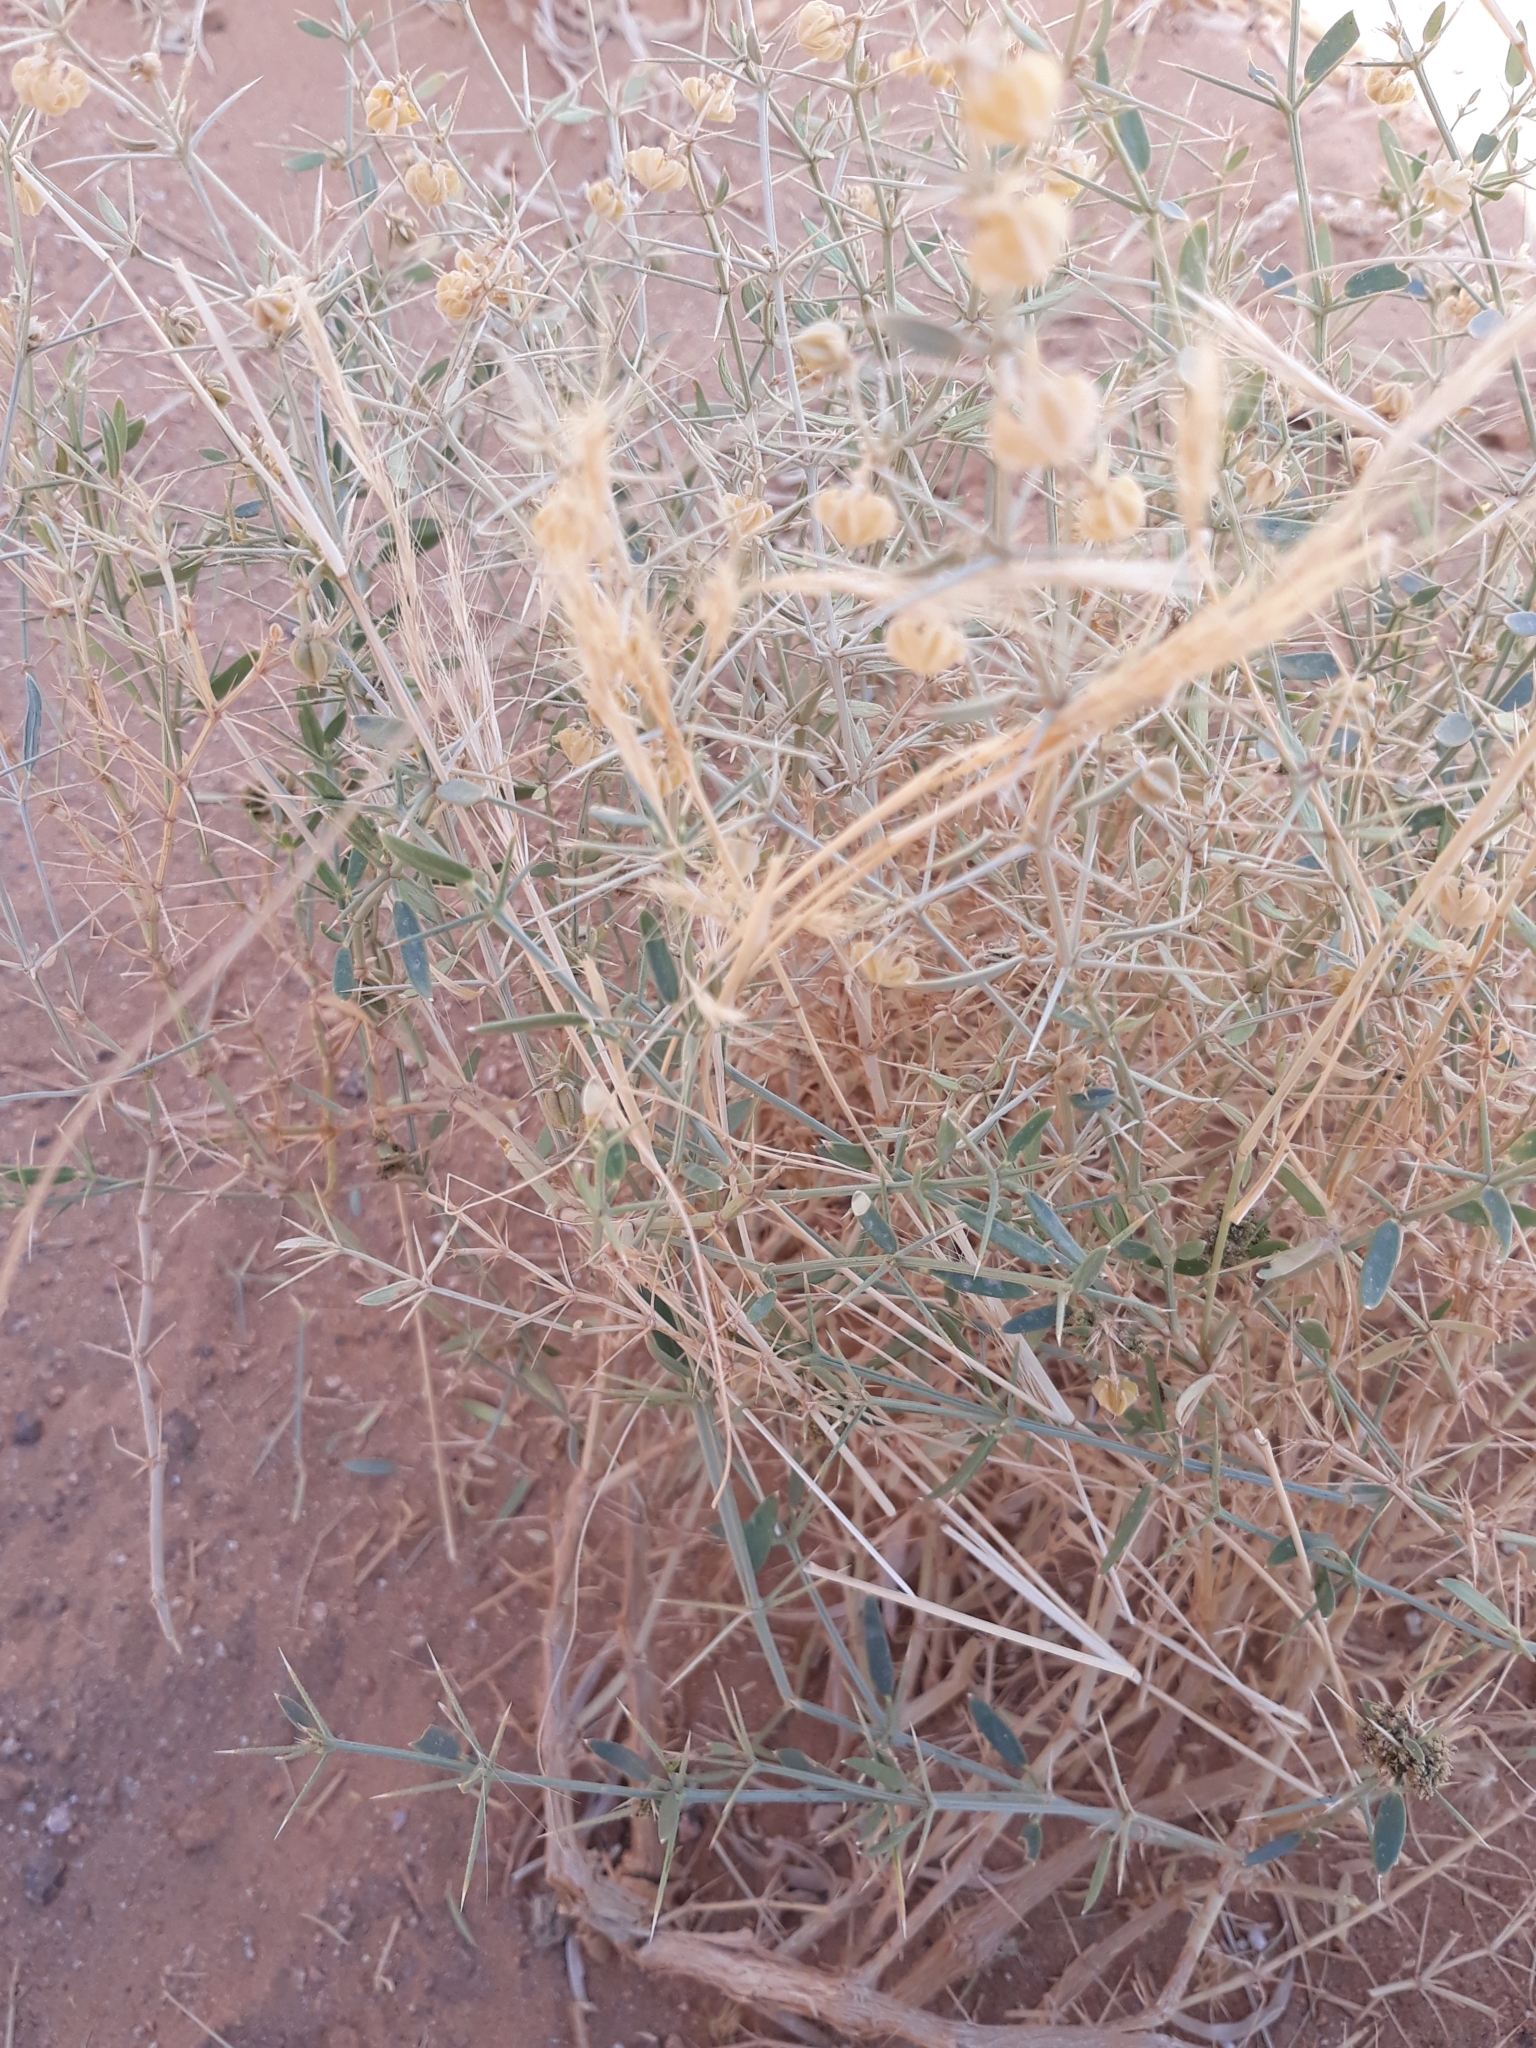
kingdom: Plantae
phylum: Tracheophyta
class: Magnoliopsida
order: Zygophyllales
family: Zygophyllaceae
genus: Fagonia
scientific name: Fagonia indica
